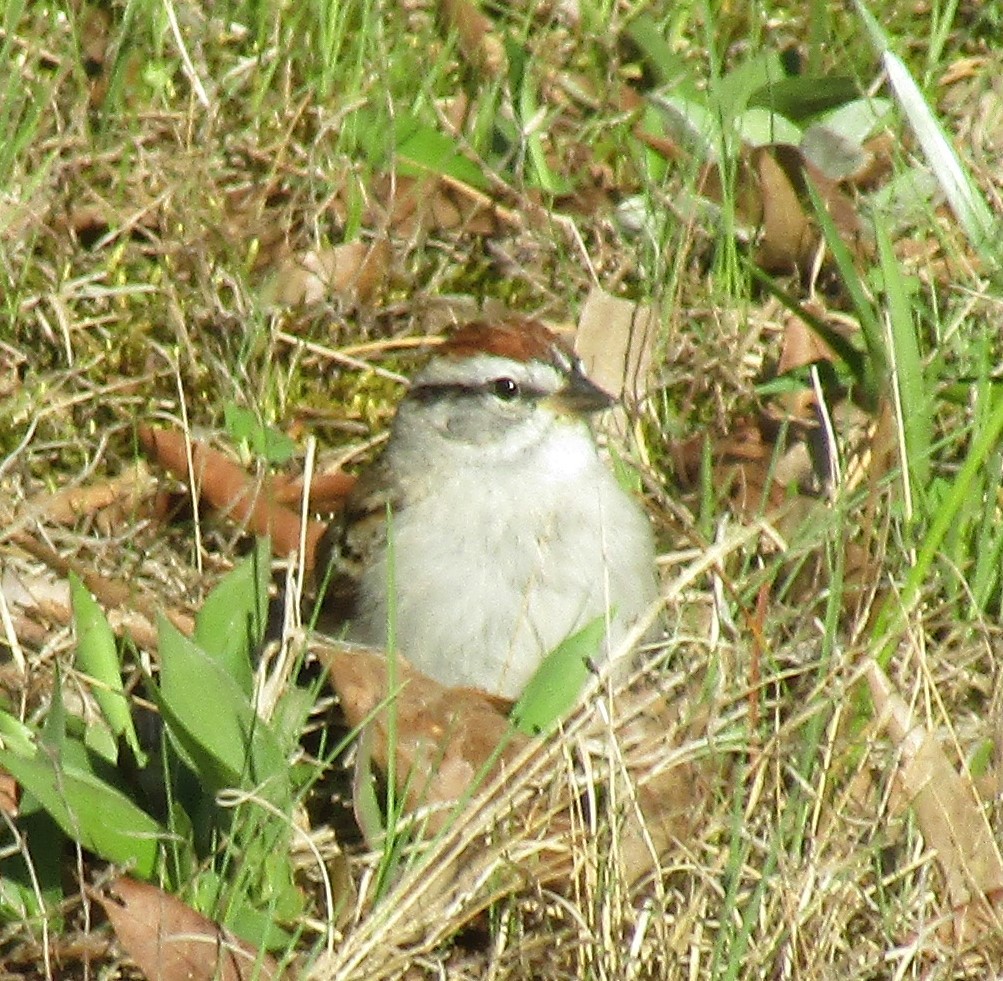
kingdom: Animalia
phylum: Chordata
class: Aves
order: Passeriformes
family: Passerellidae
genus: Spizella
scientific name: Spizella passerina
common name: Chipping sparrow
